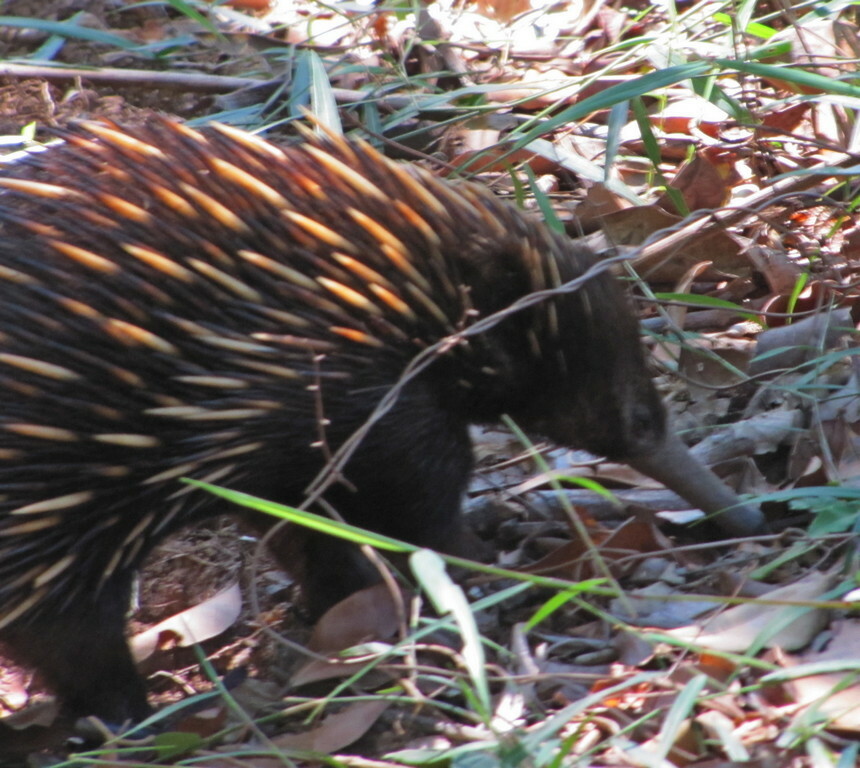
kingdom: Animalia
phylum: Chordata
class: Mammalia
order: Monotremata
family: Tachyglossidae
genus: Tachyglossus
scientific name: Tachyglossus aculeatus
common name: Short-beaked echidna
